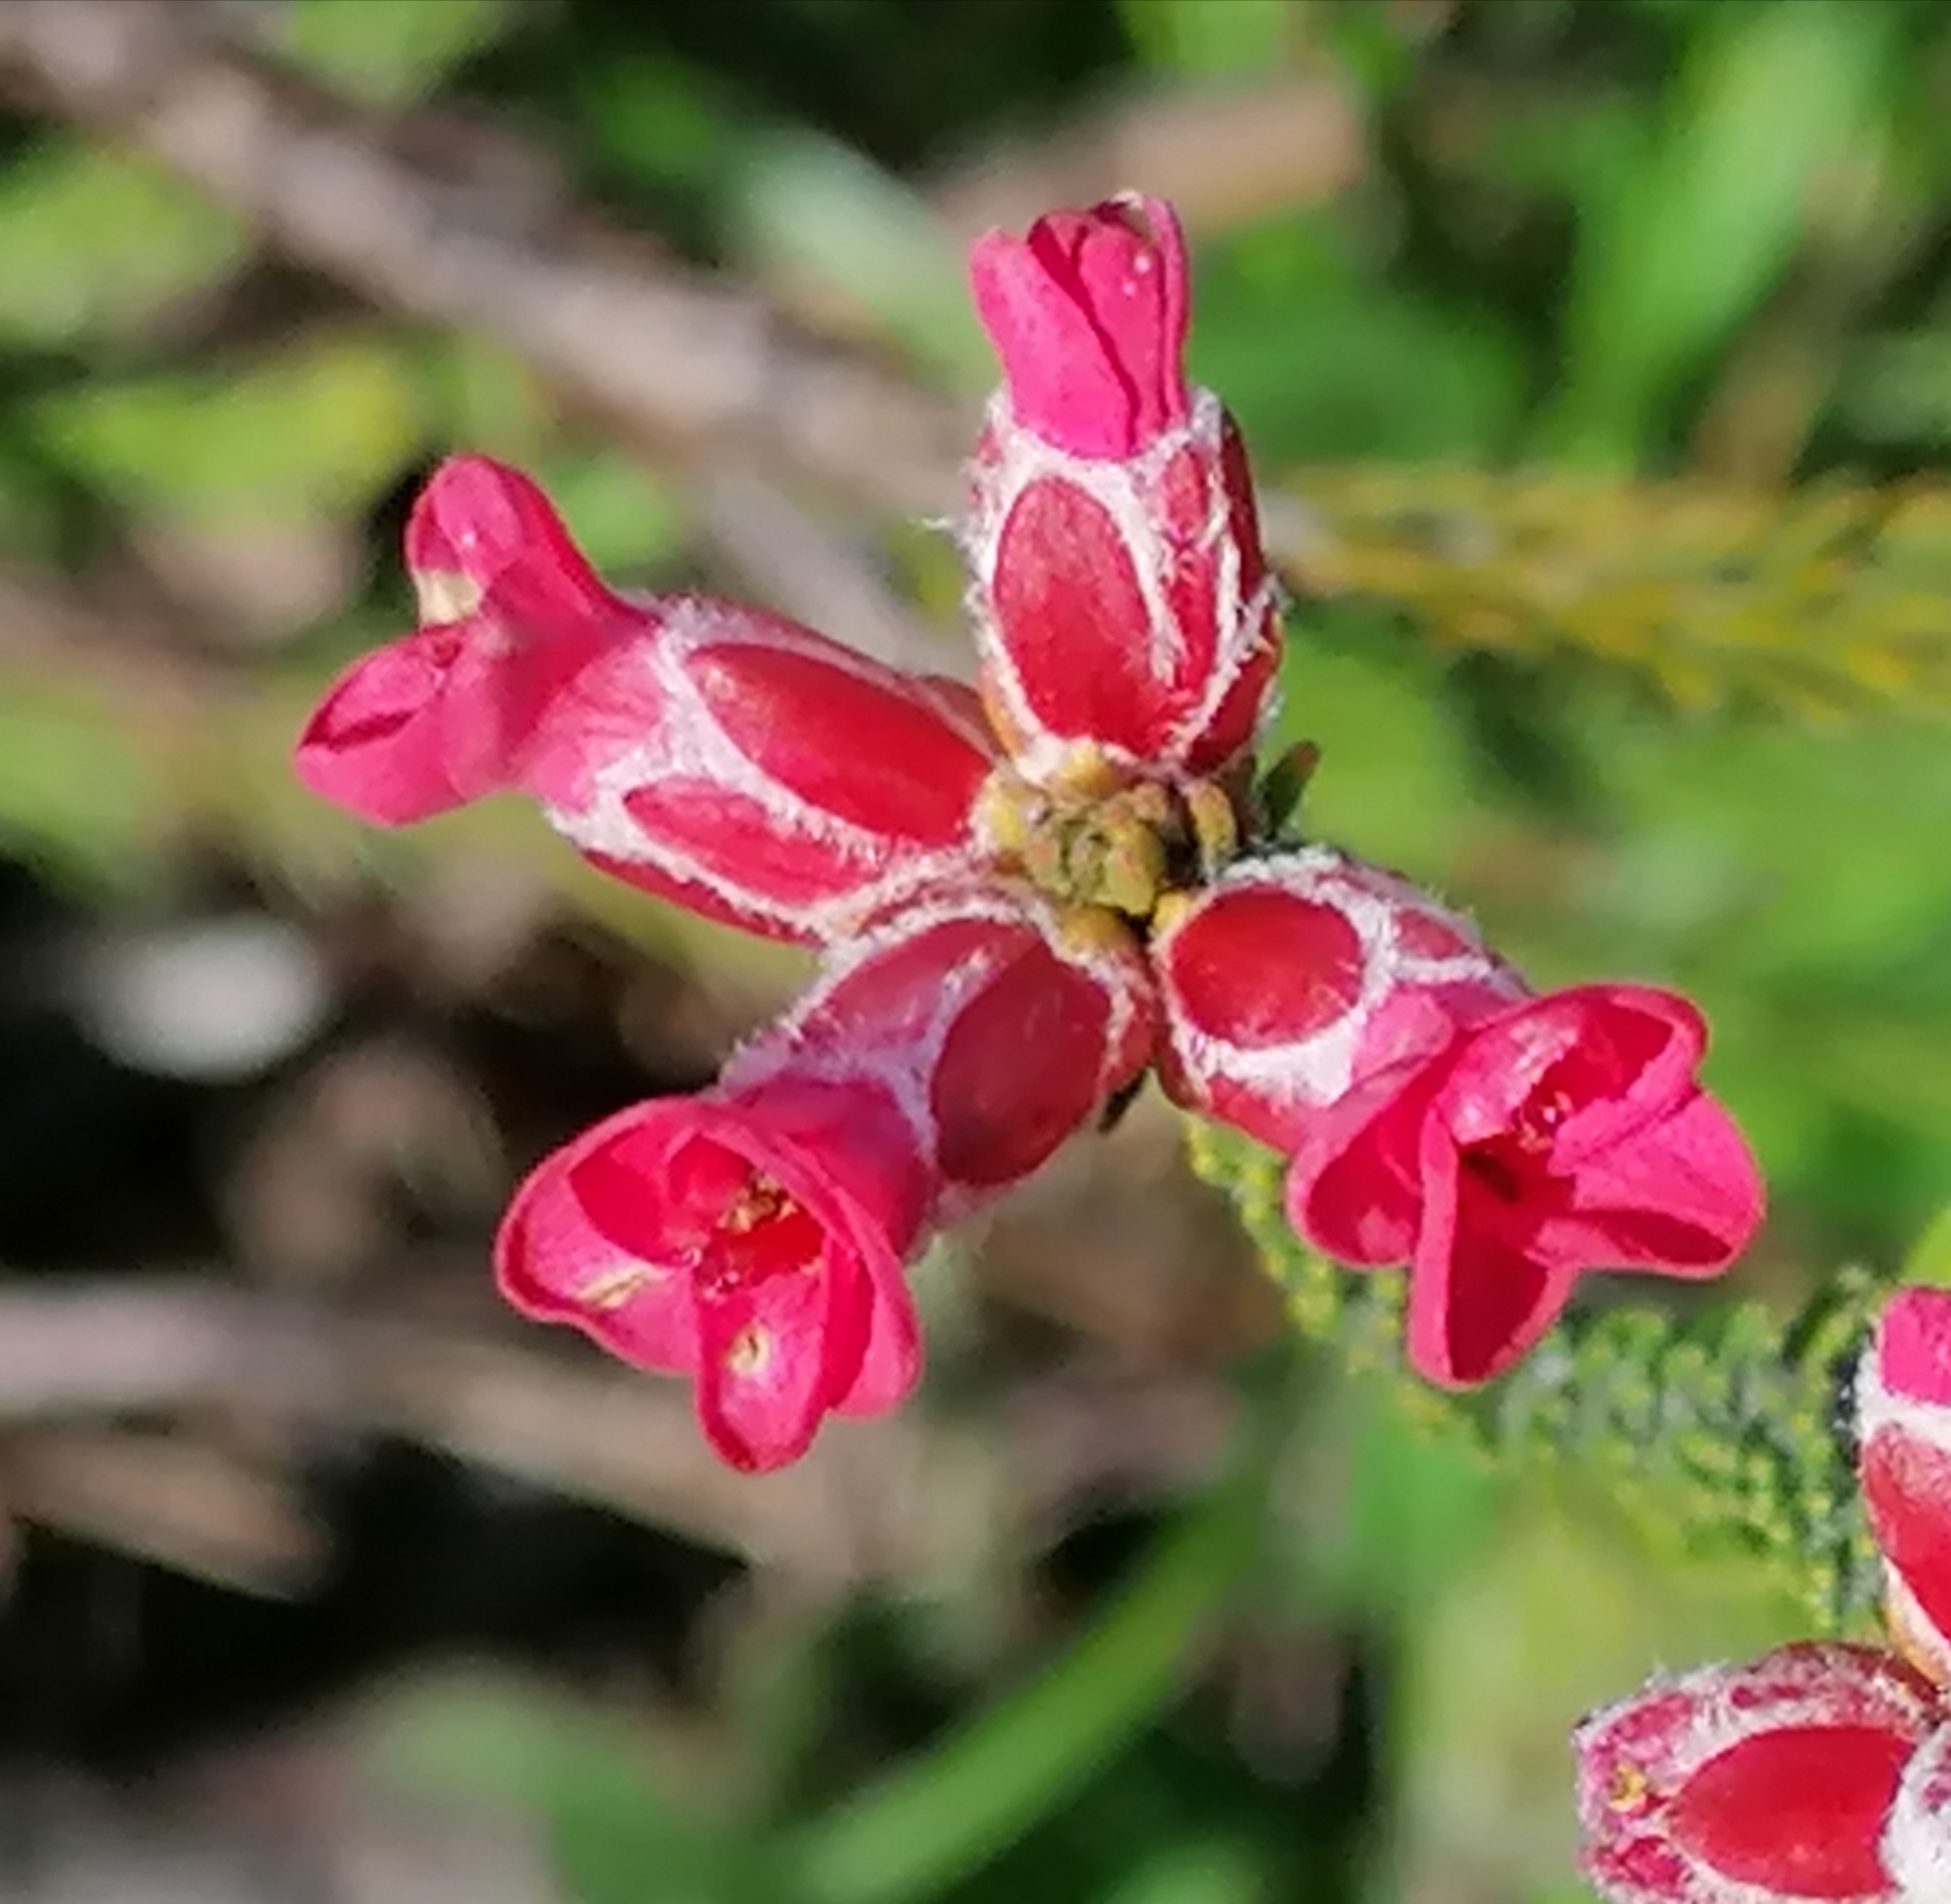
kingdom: Plantae
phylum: Tracheophyta
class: Magnoliopsida
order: Bruniales
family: Bruniaceae
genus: Audouinia
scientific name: Audouinia capitata
